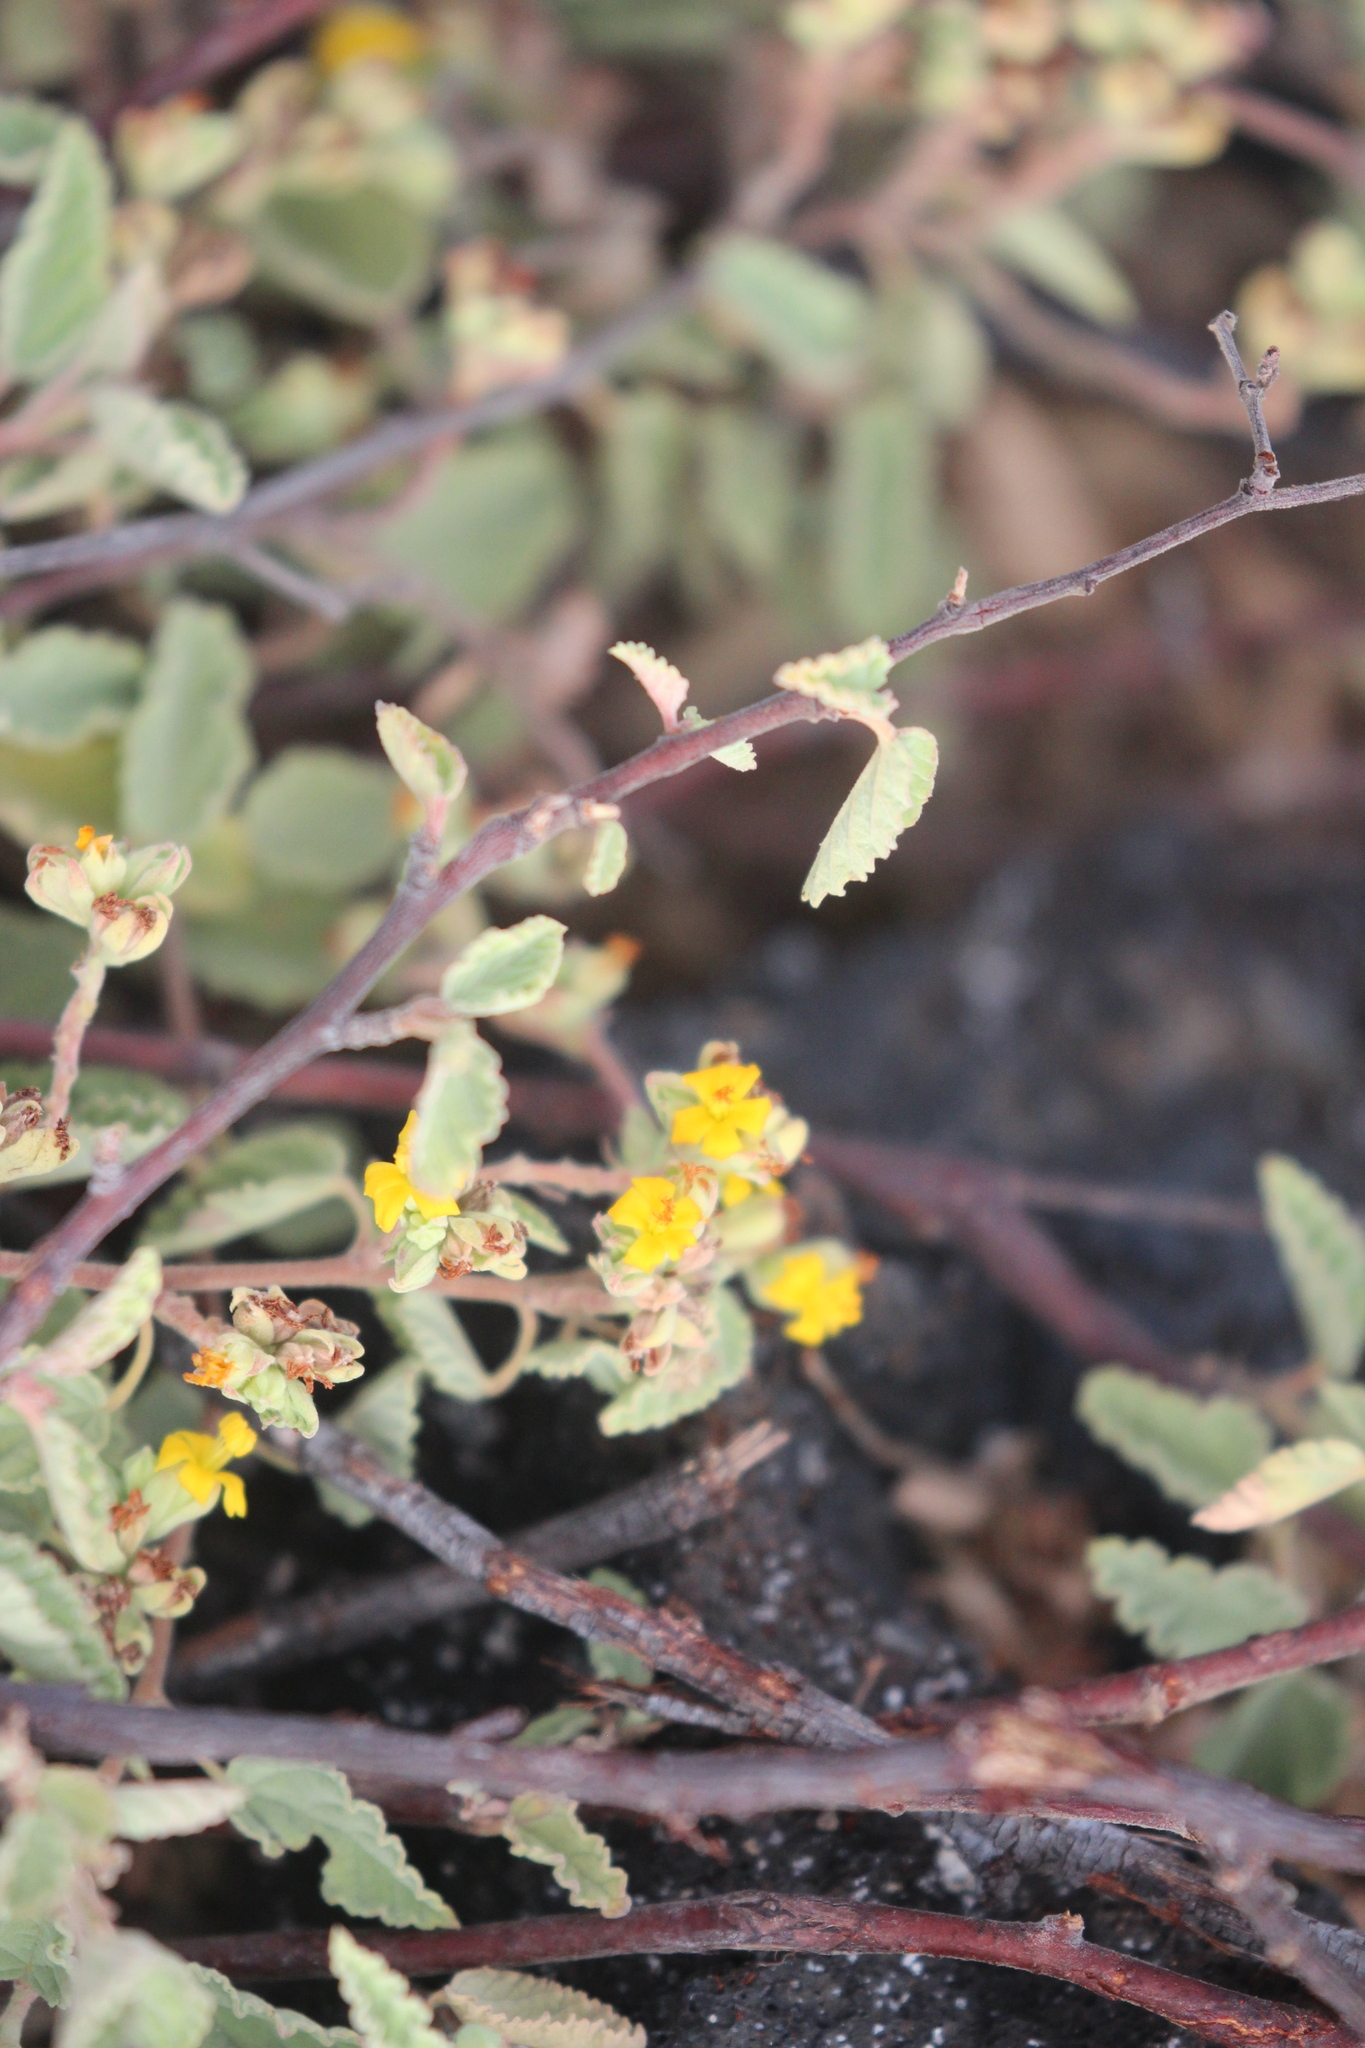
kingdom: Plantae
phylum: Tracheophyta
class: Magnoliopsida
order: Malvales
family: Malvaceae
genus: Waltheria
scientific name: Waltheria ovata
